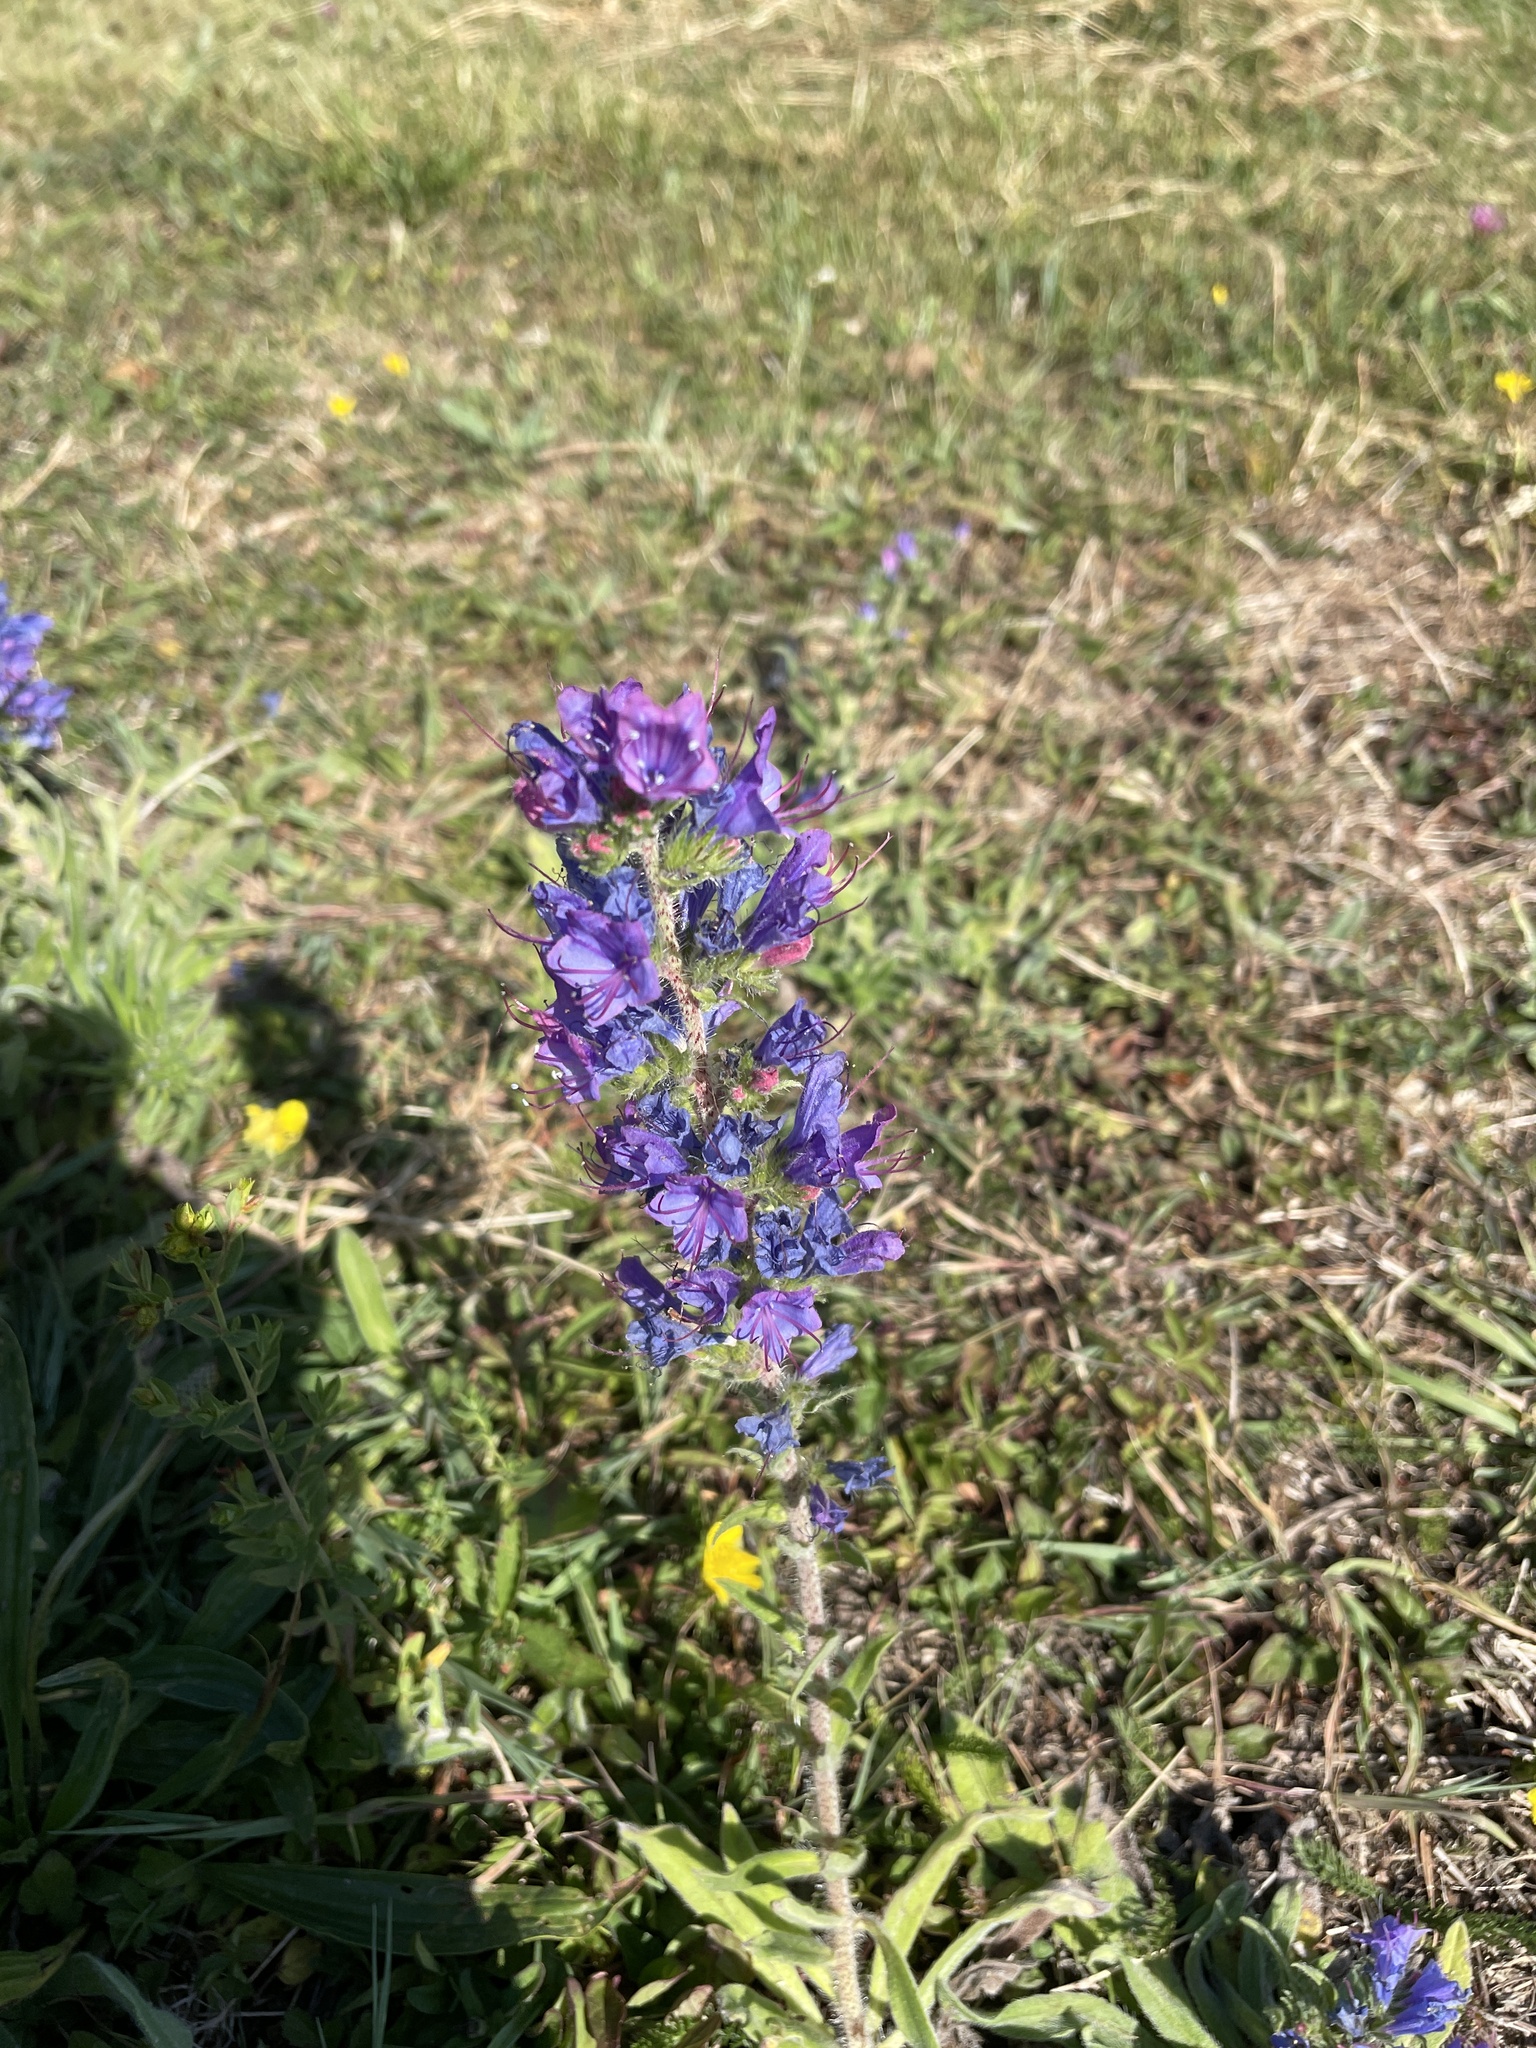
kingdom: Plantae
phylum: Tracheophyta
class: Magnoliopsida
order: Boraginales
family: Boraginaceae
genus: Echium
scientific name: Echium plantagineum
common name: Purple viper's-bugloss
